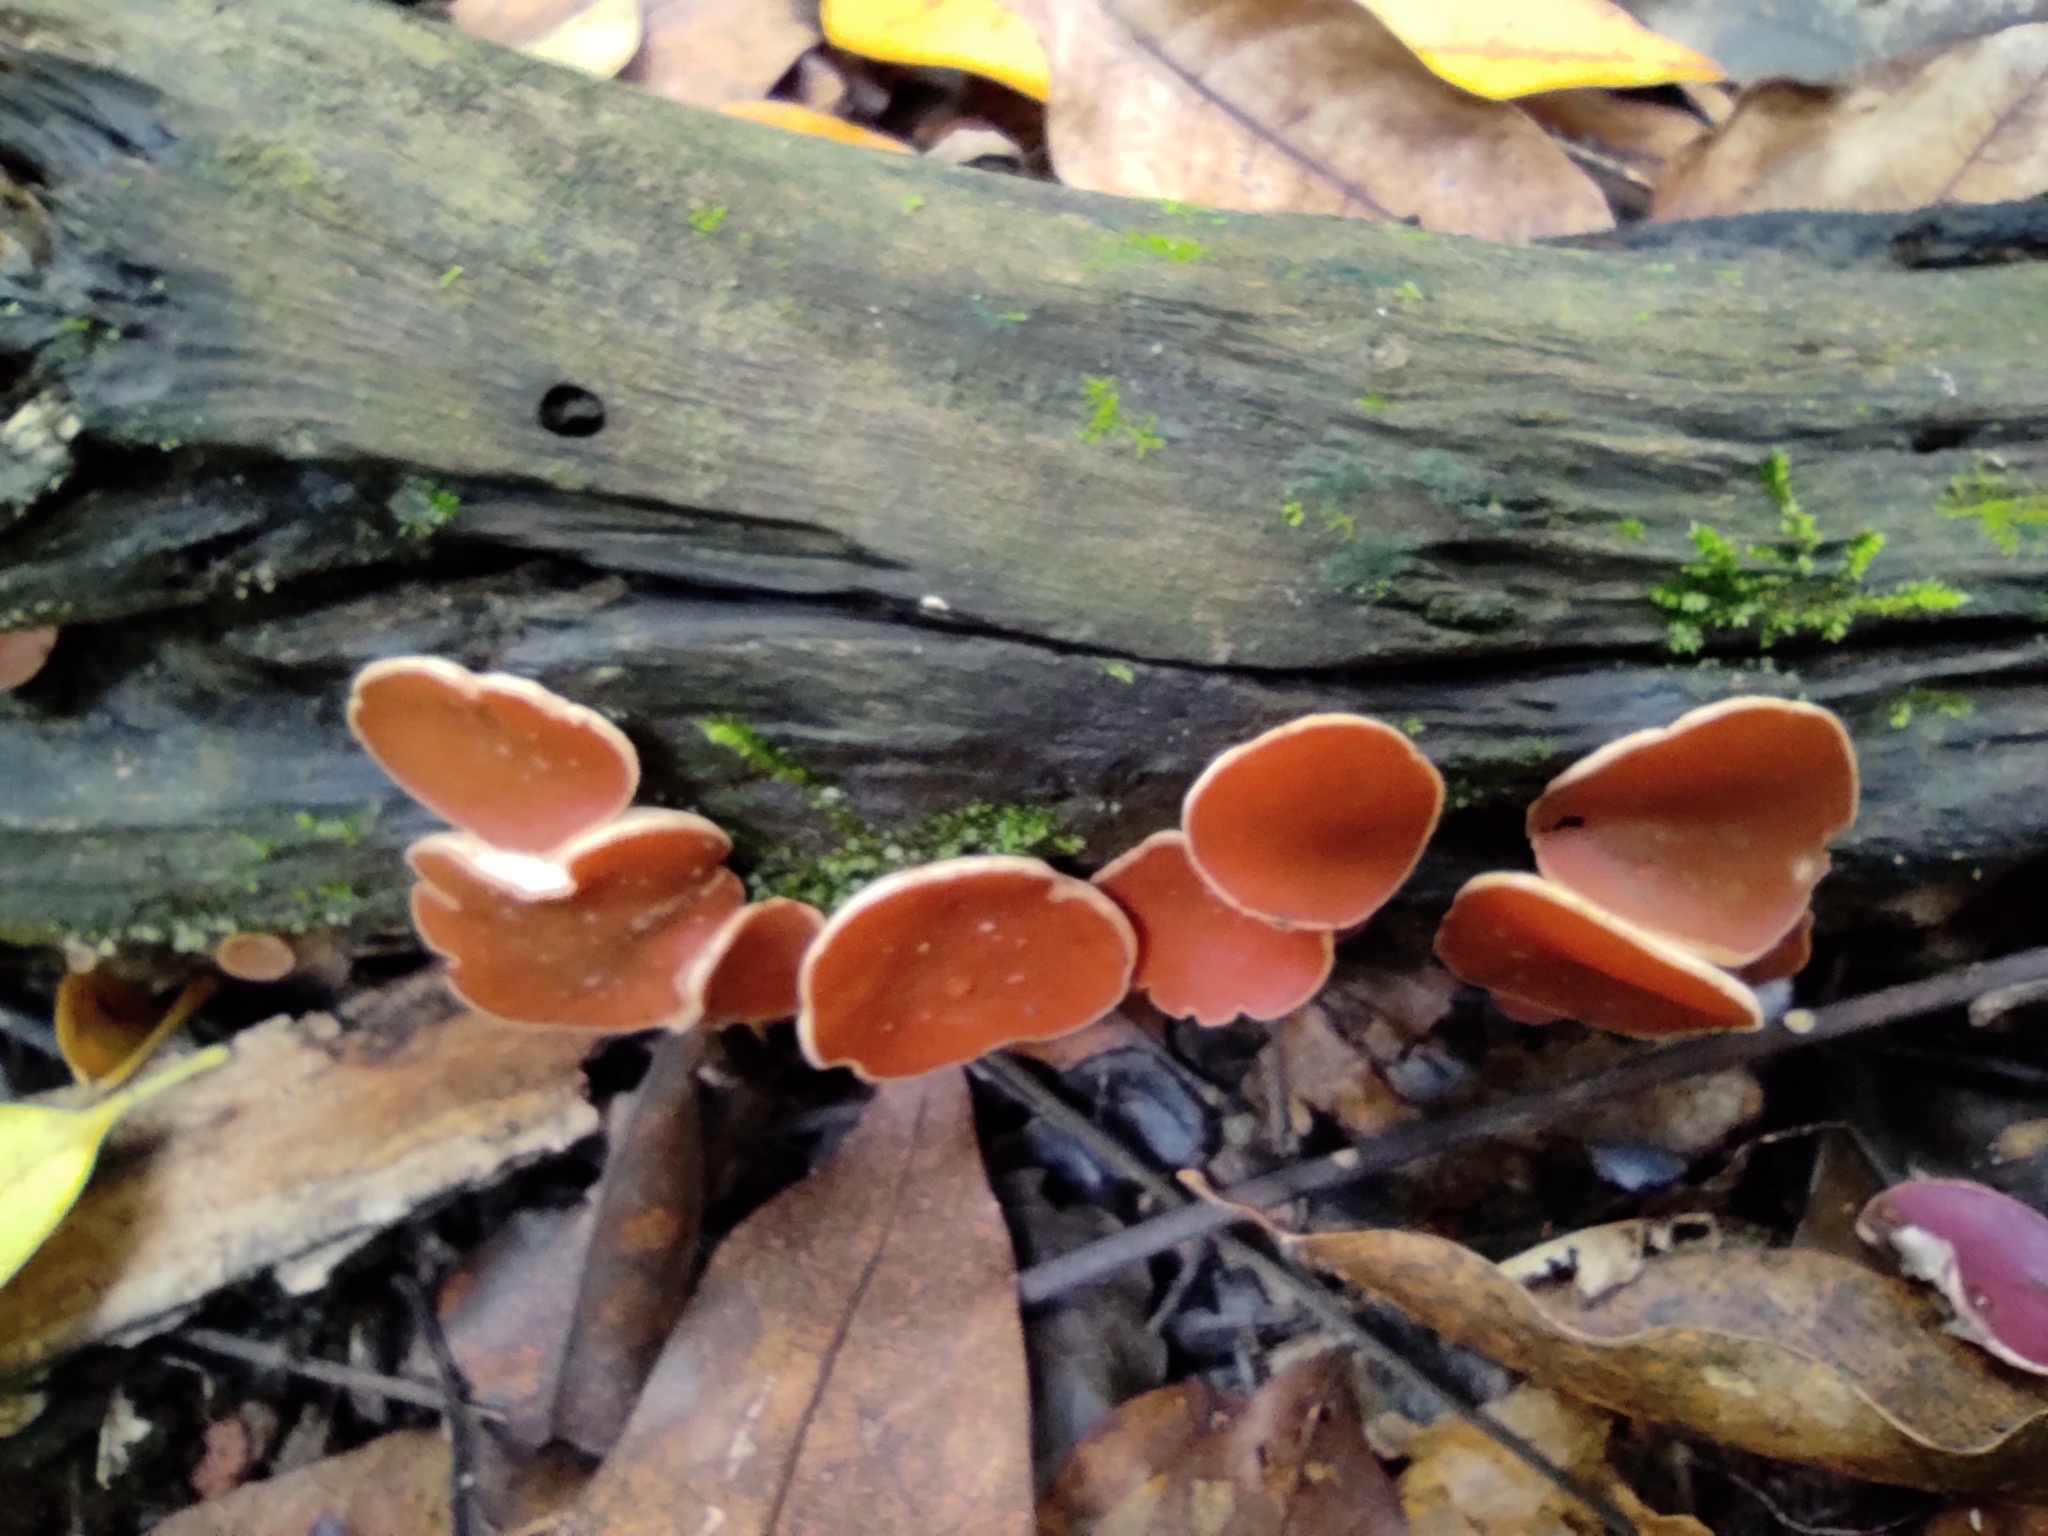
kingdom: Fungi
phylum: Ascomycota
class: Pezizomycetes
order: Pezizales
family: Sarcoscyphaceae
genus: Phillipsia
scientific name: Phillipsia domingensis
